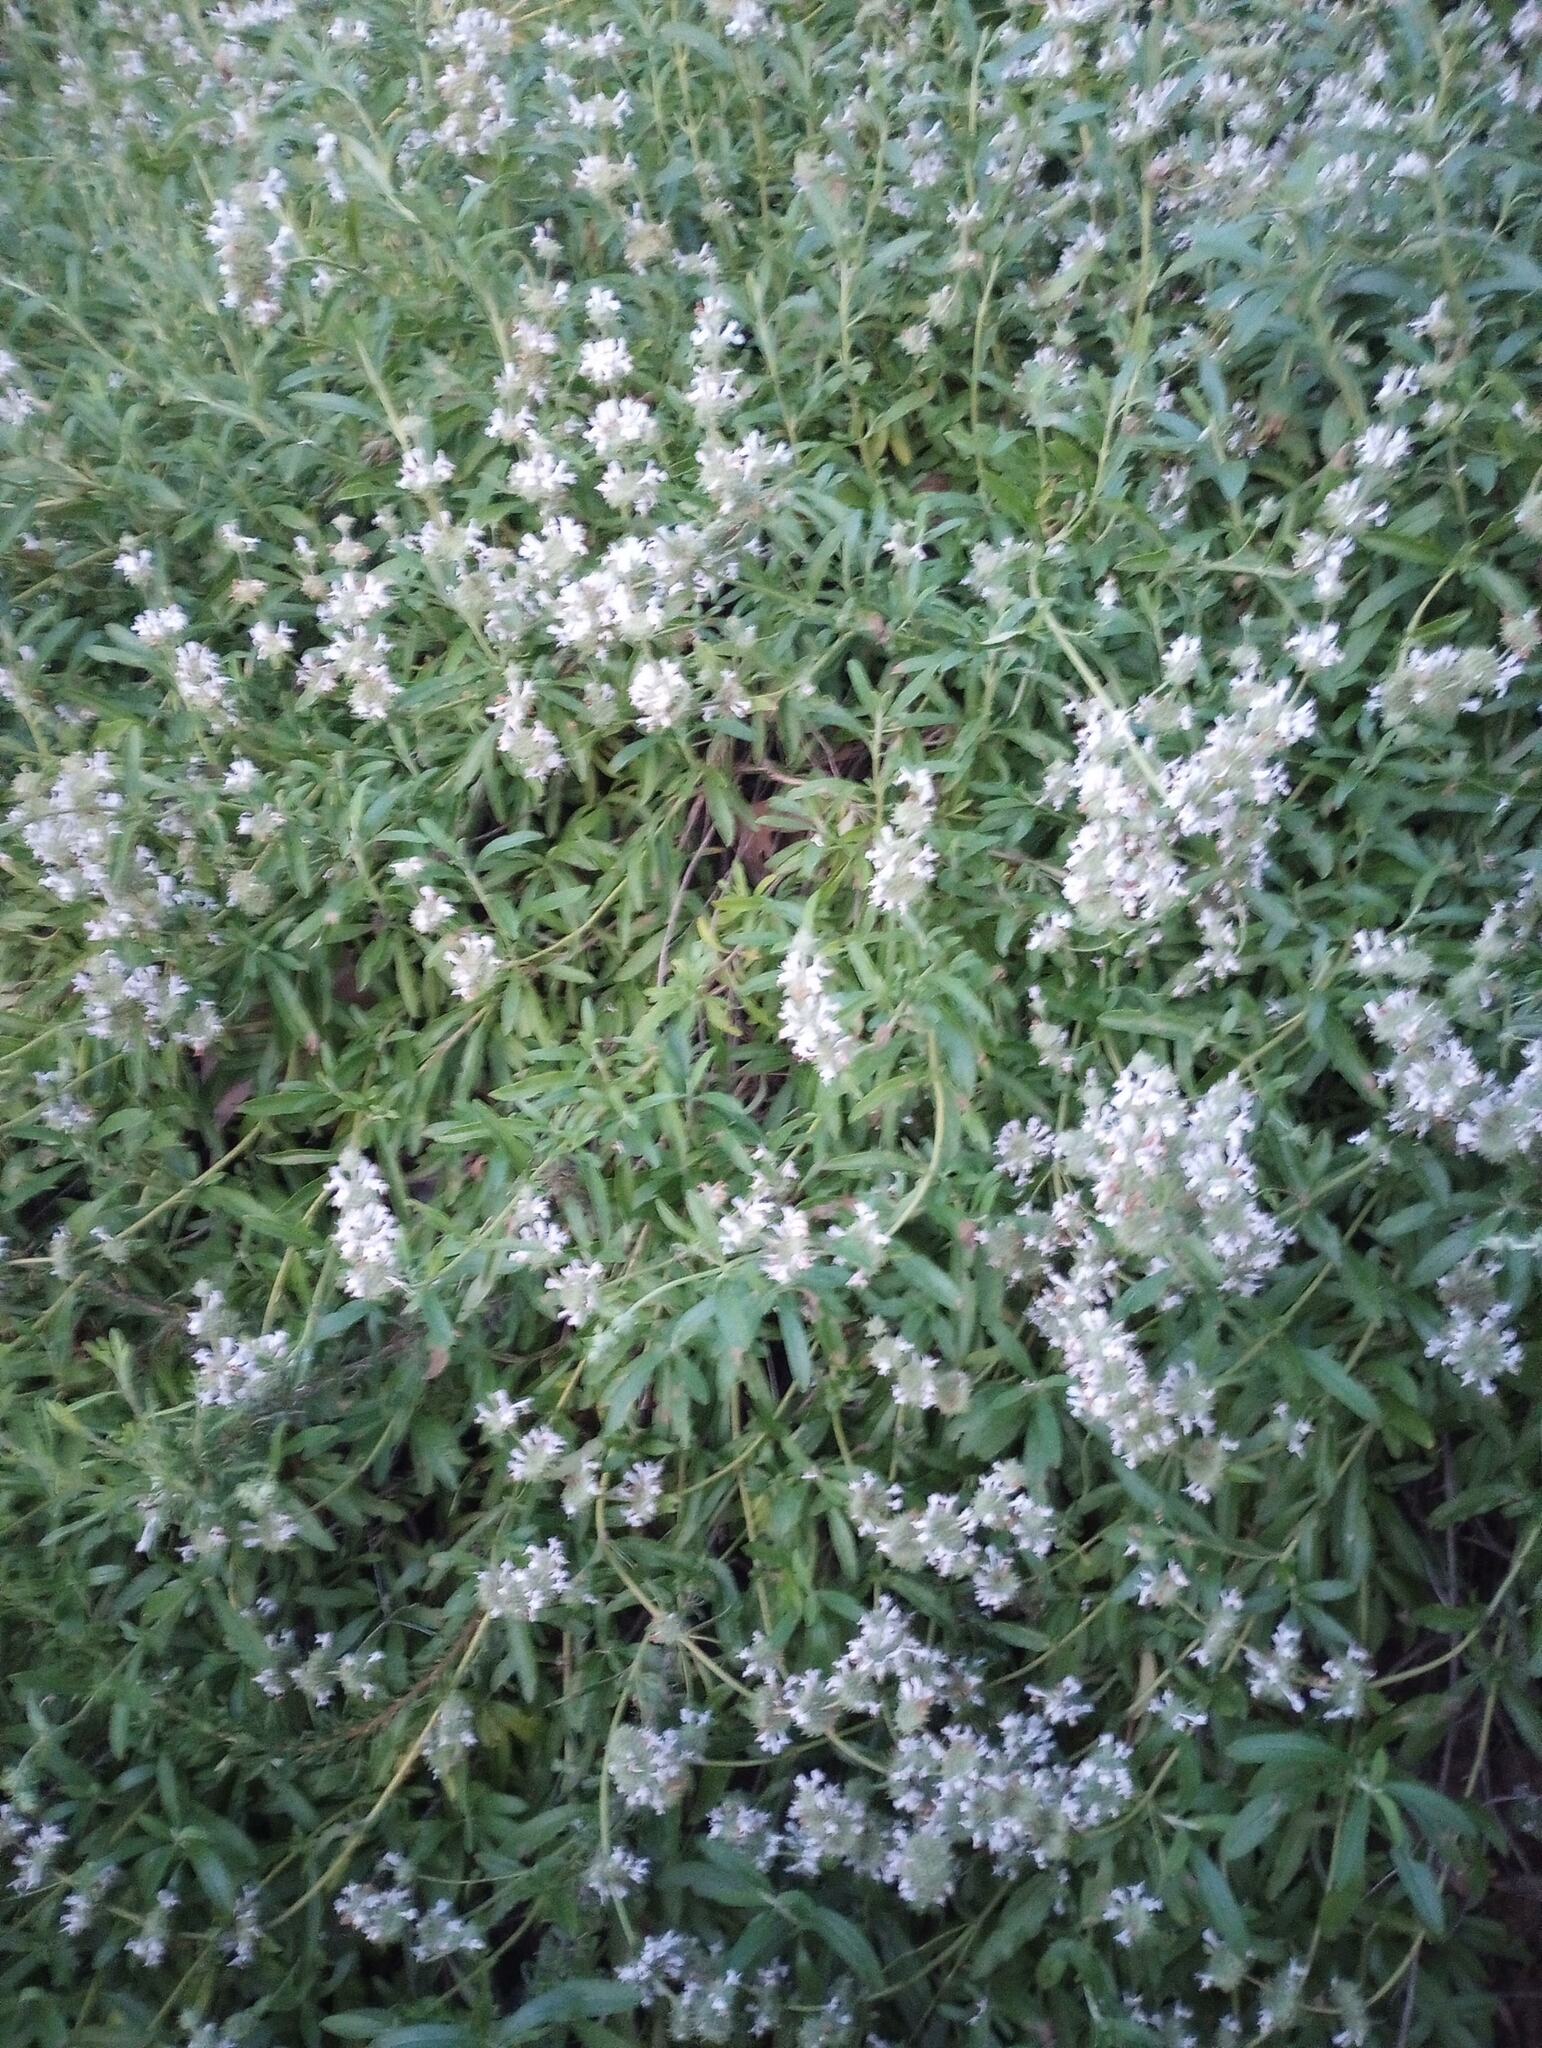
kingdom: Plantae
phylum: Tracheophyta
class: Magnoliopsida
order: Lamiales
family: Lamiaceae
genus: Salvia
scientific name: Salvia mellifera
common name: Black sage
